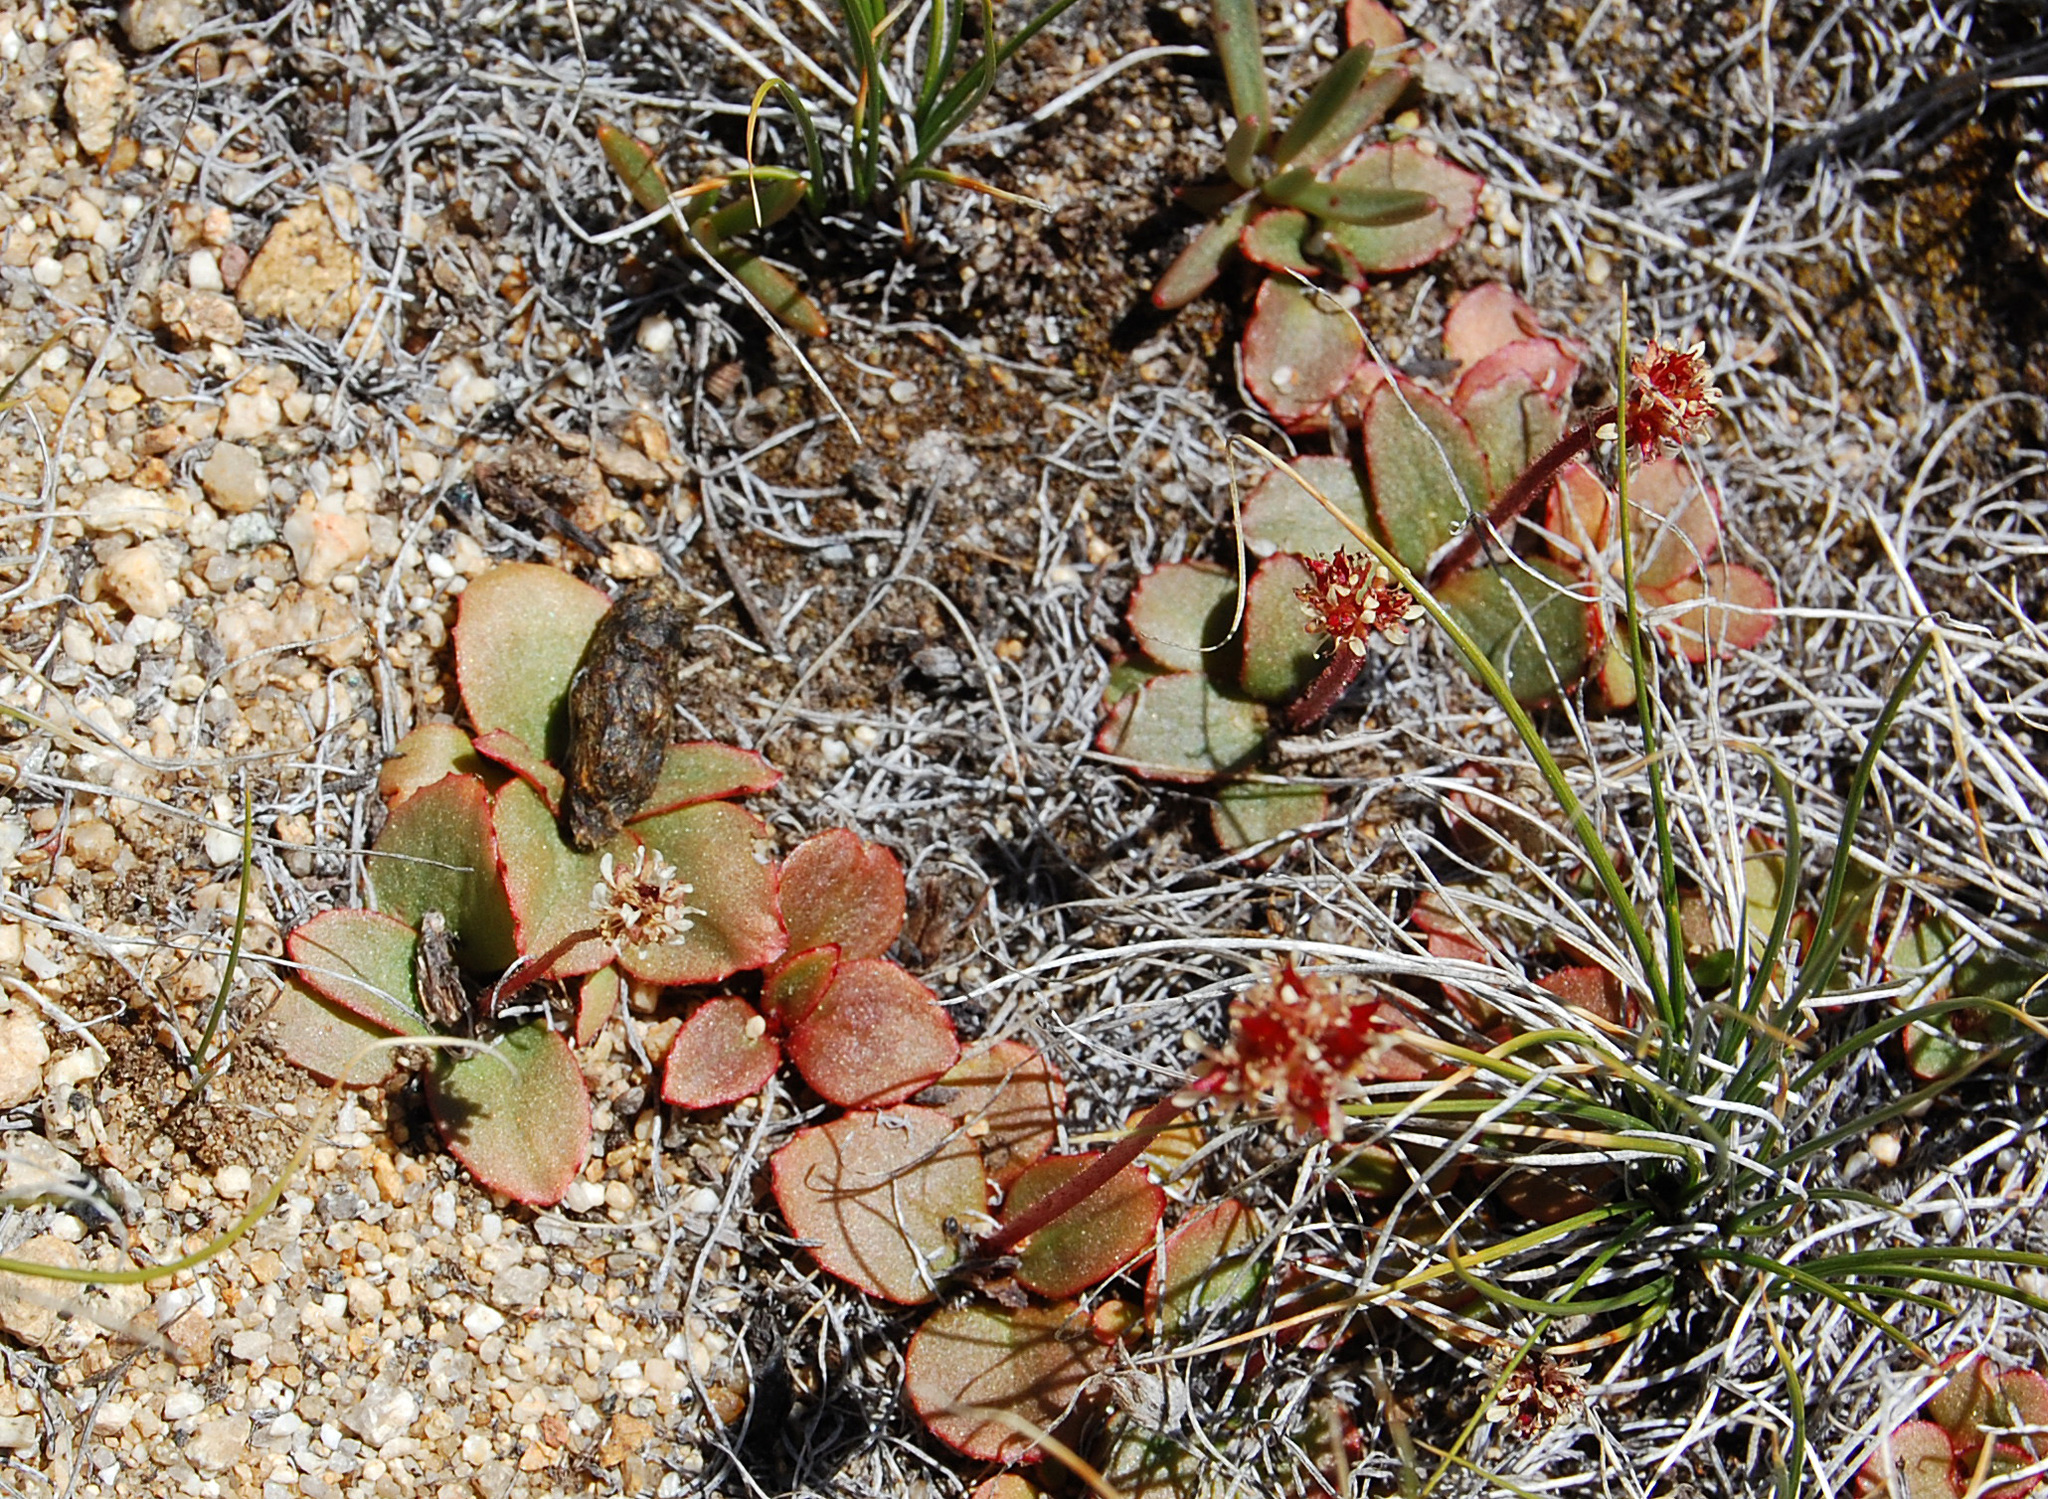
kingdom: Plantae
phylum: Tracheophyta
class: Magnoliopsida
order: Saxifragales
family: Saxifragaceae
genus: Micranthes
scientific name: Micranthes aprica
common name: Sierra saxifrage
